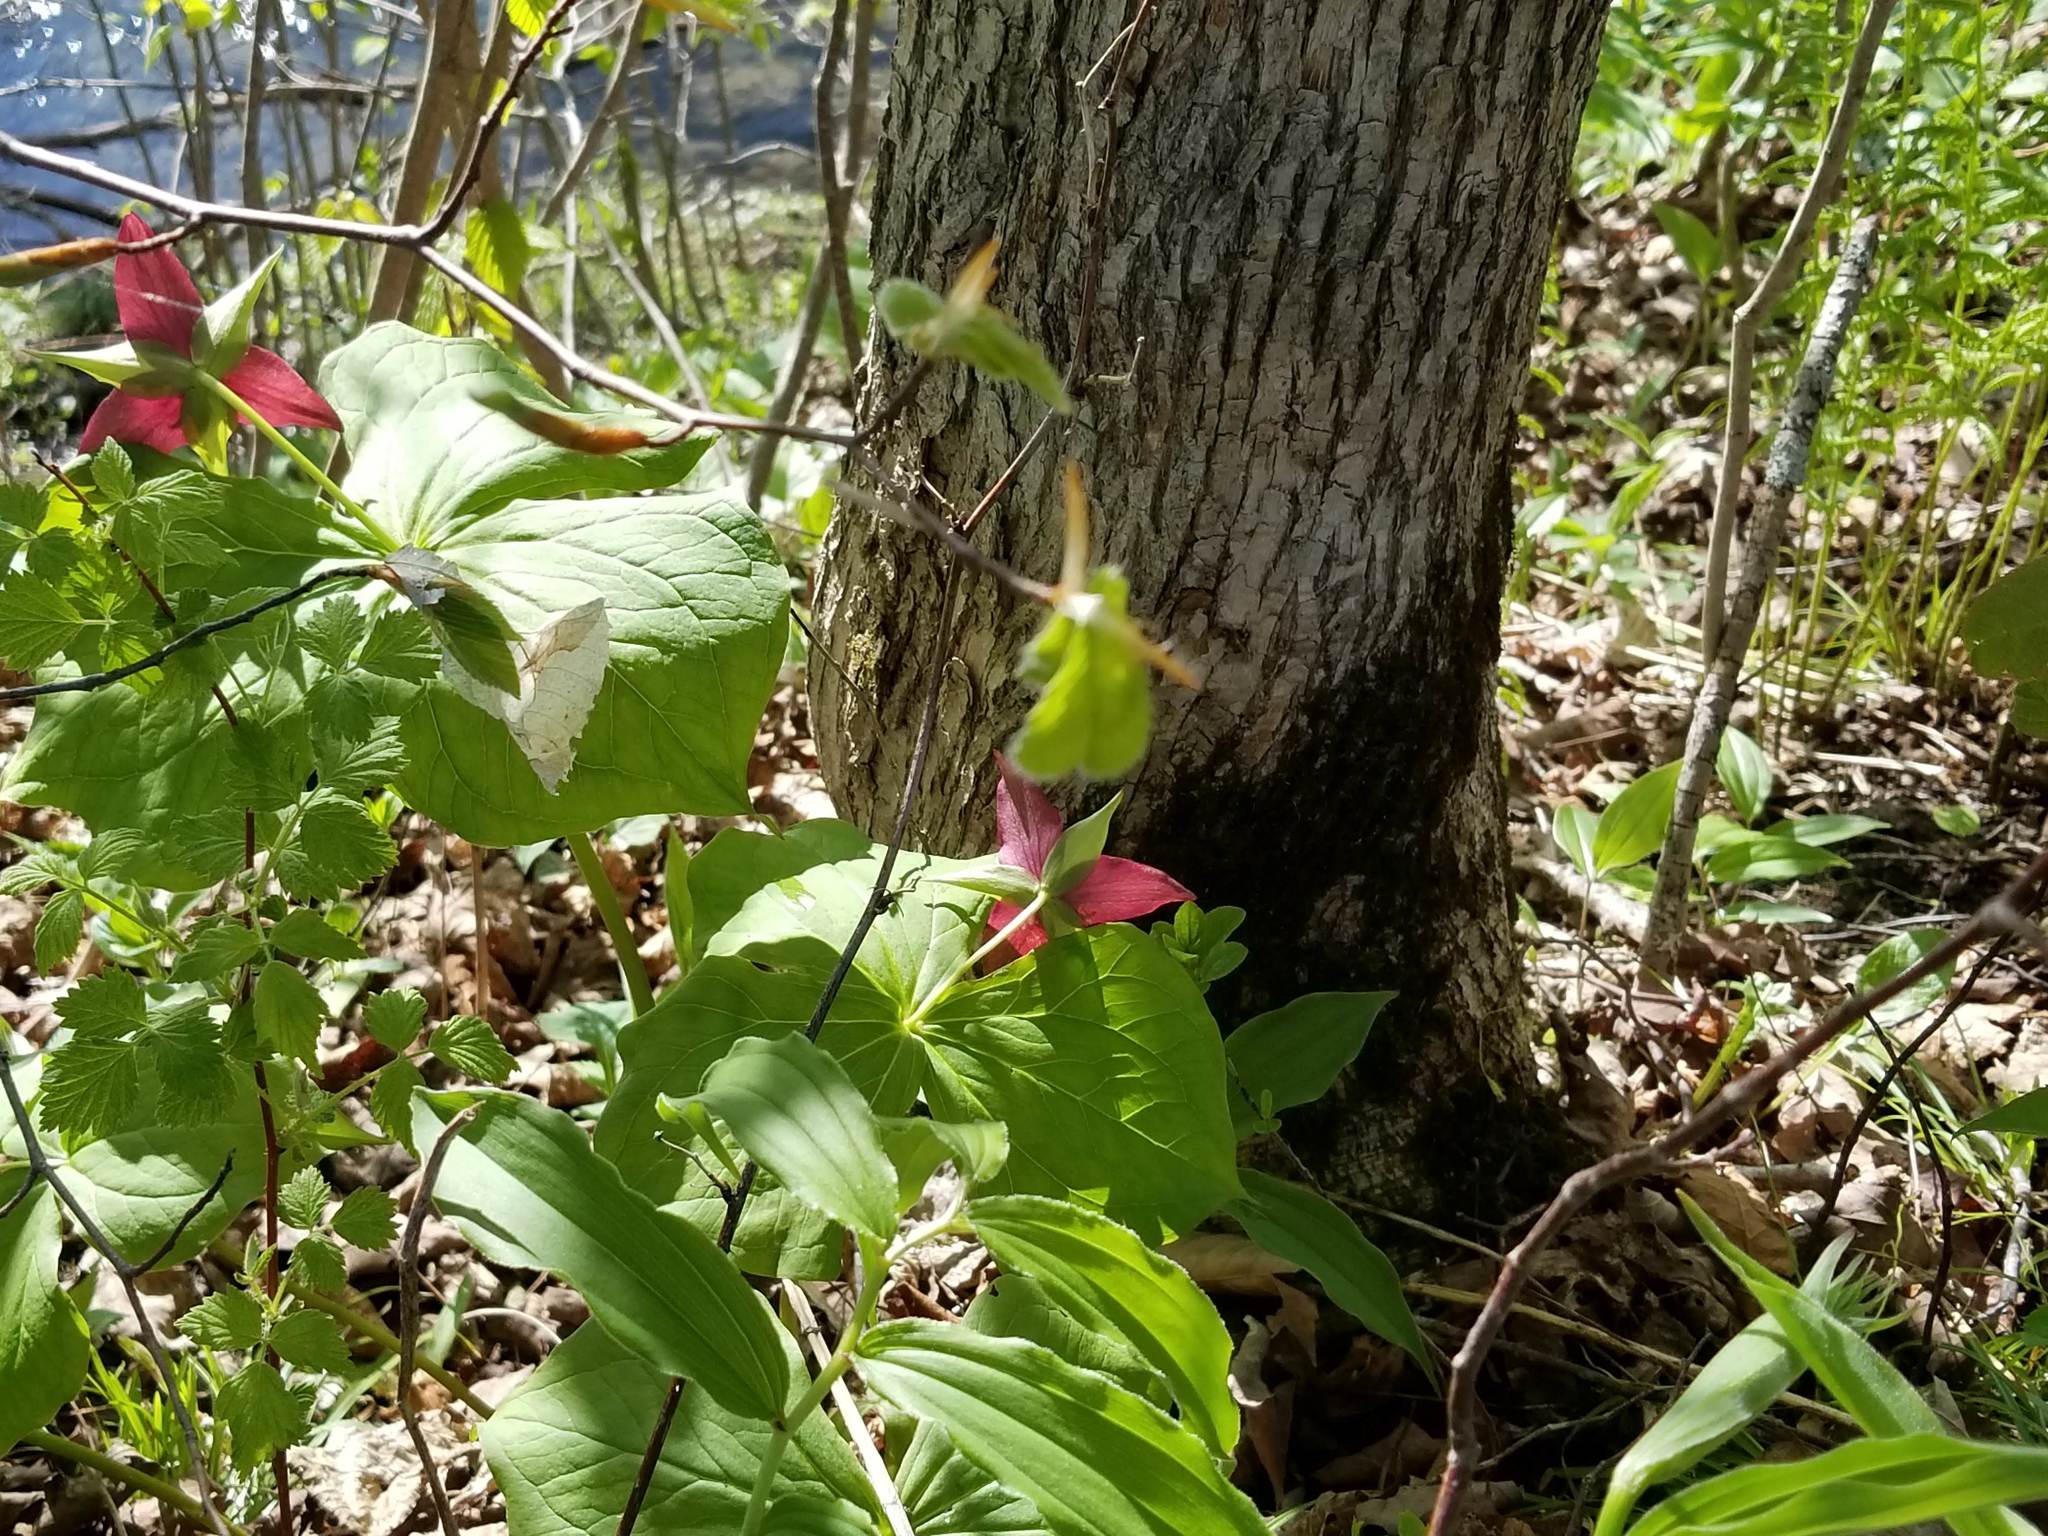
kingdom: Plantae
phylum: Tracheophyta
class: Liliopsida
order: Liliales
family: Melanthiaceae
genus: Trillium
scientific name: Trillium erectum
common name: Purple trillium
